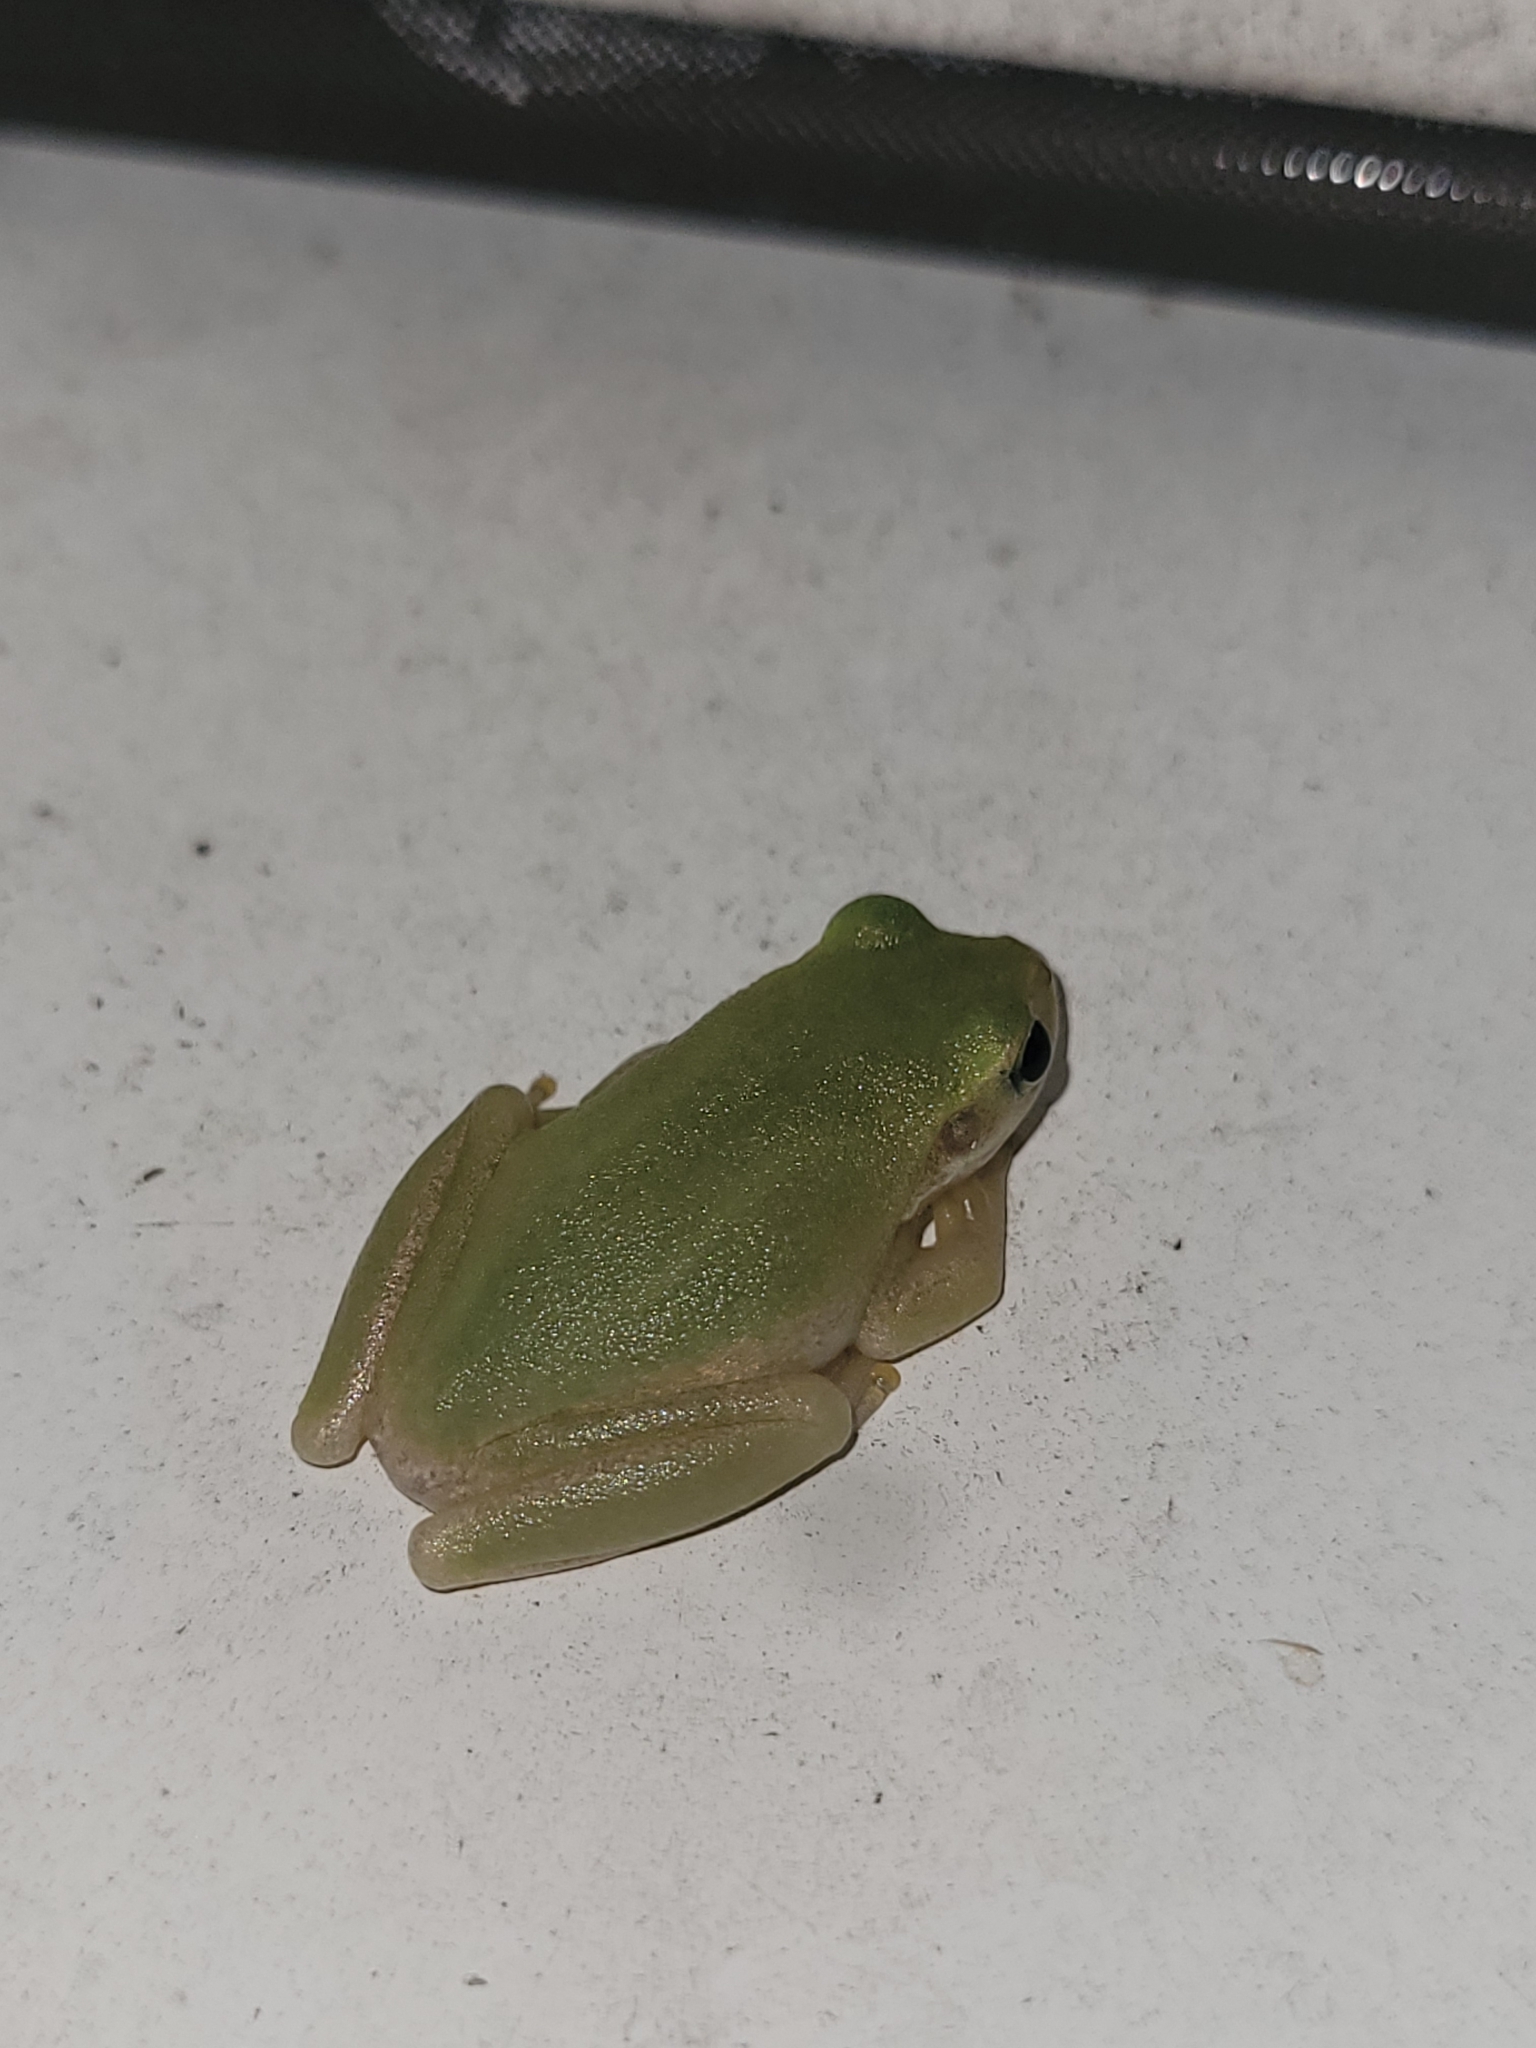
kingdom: Animalia
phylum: Chordata
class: Amphibia
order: Anura
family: Hylidae
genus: Dryophytes
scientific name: Dryophytes squirellus
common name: Squirrel treefrog
